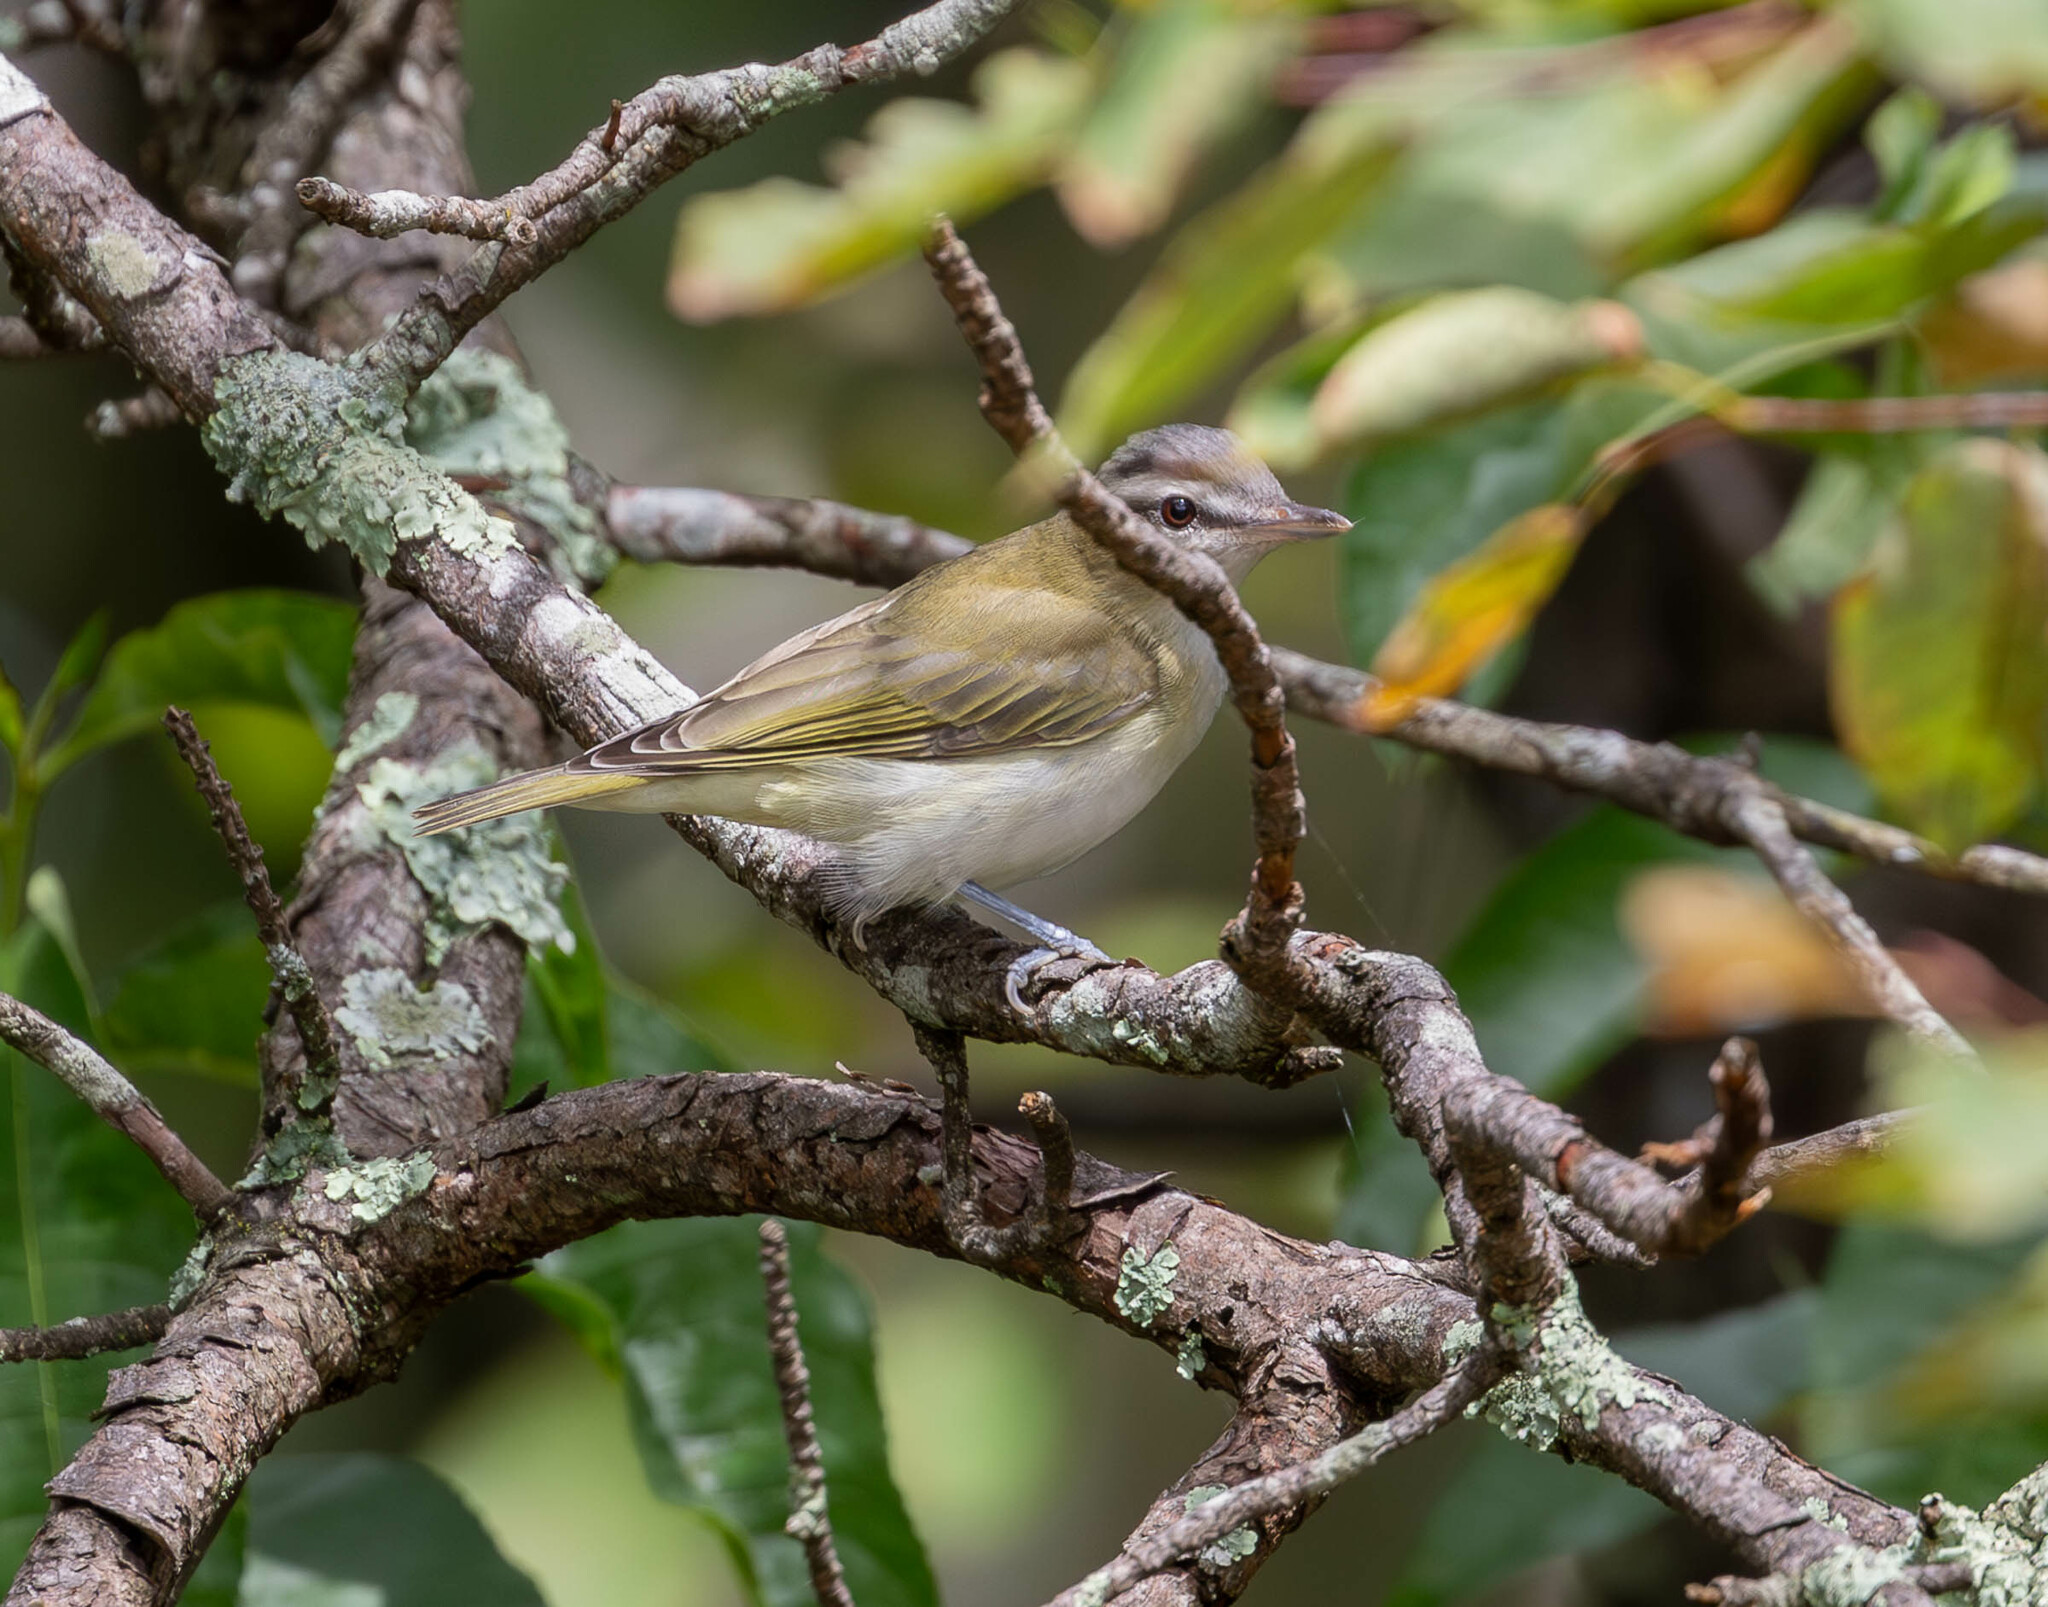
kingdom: Animalia
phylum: Chordata
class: Aves
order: Passeriformes
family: Vireonidae
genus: Vireo
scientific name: Vireo olivaceus
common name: Red-eyed vireo
